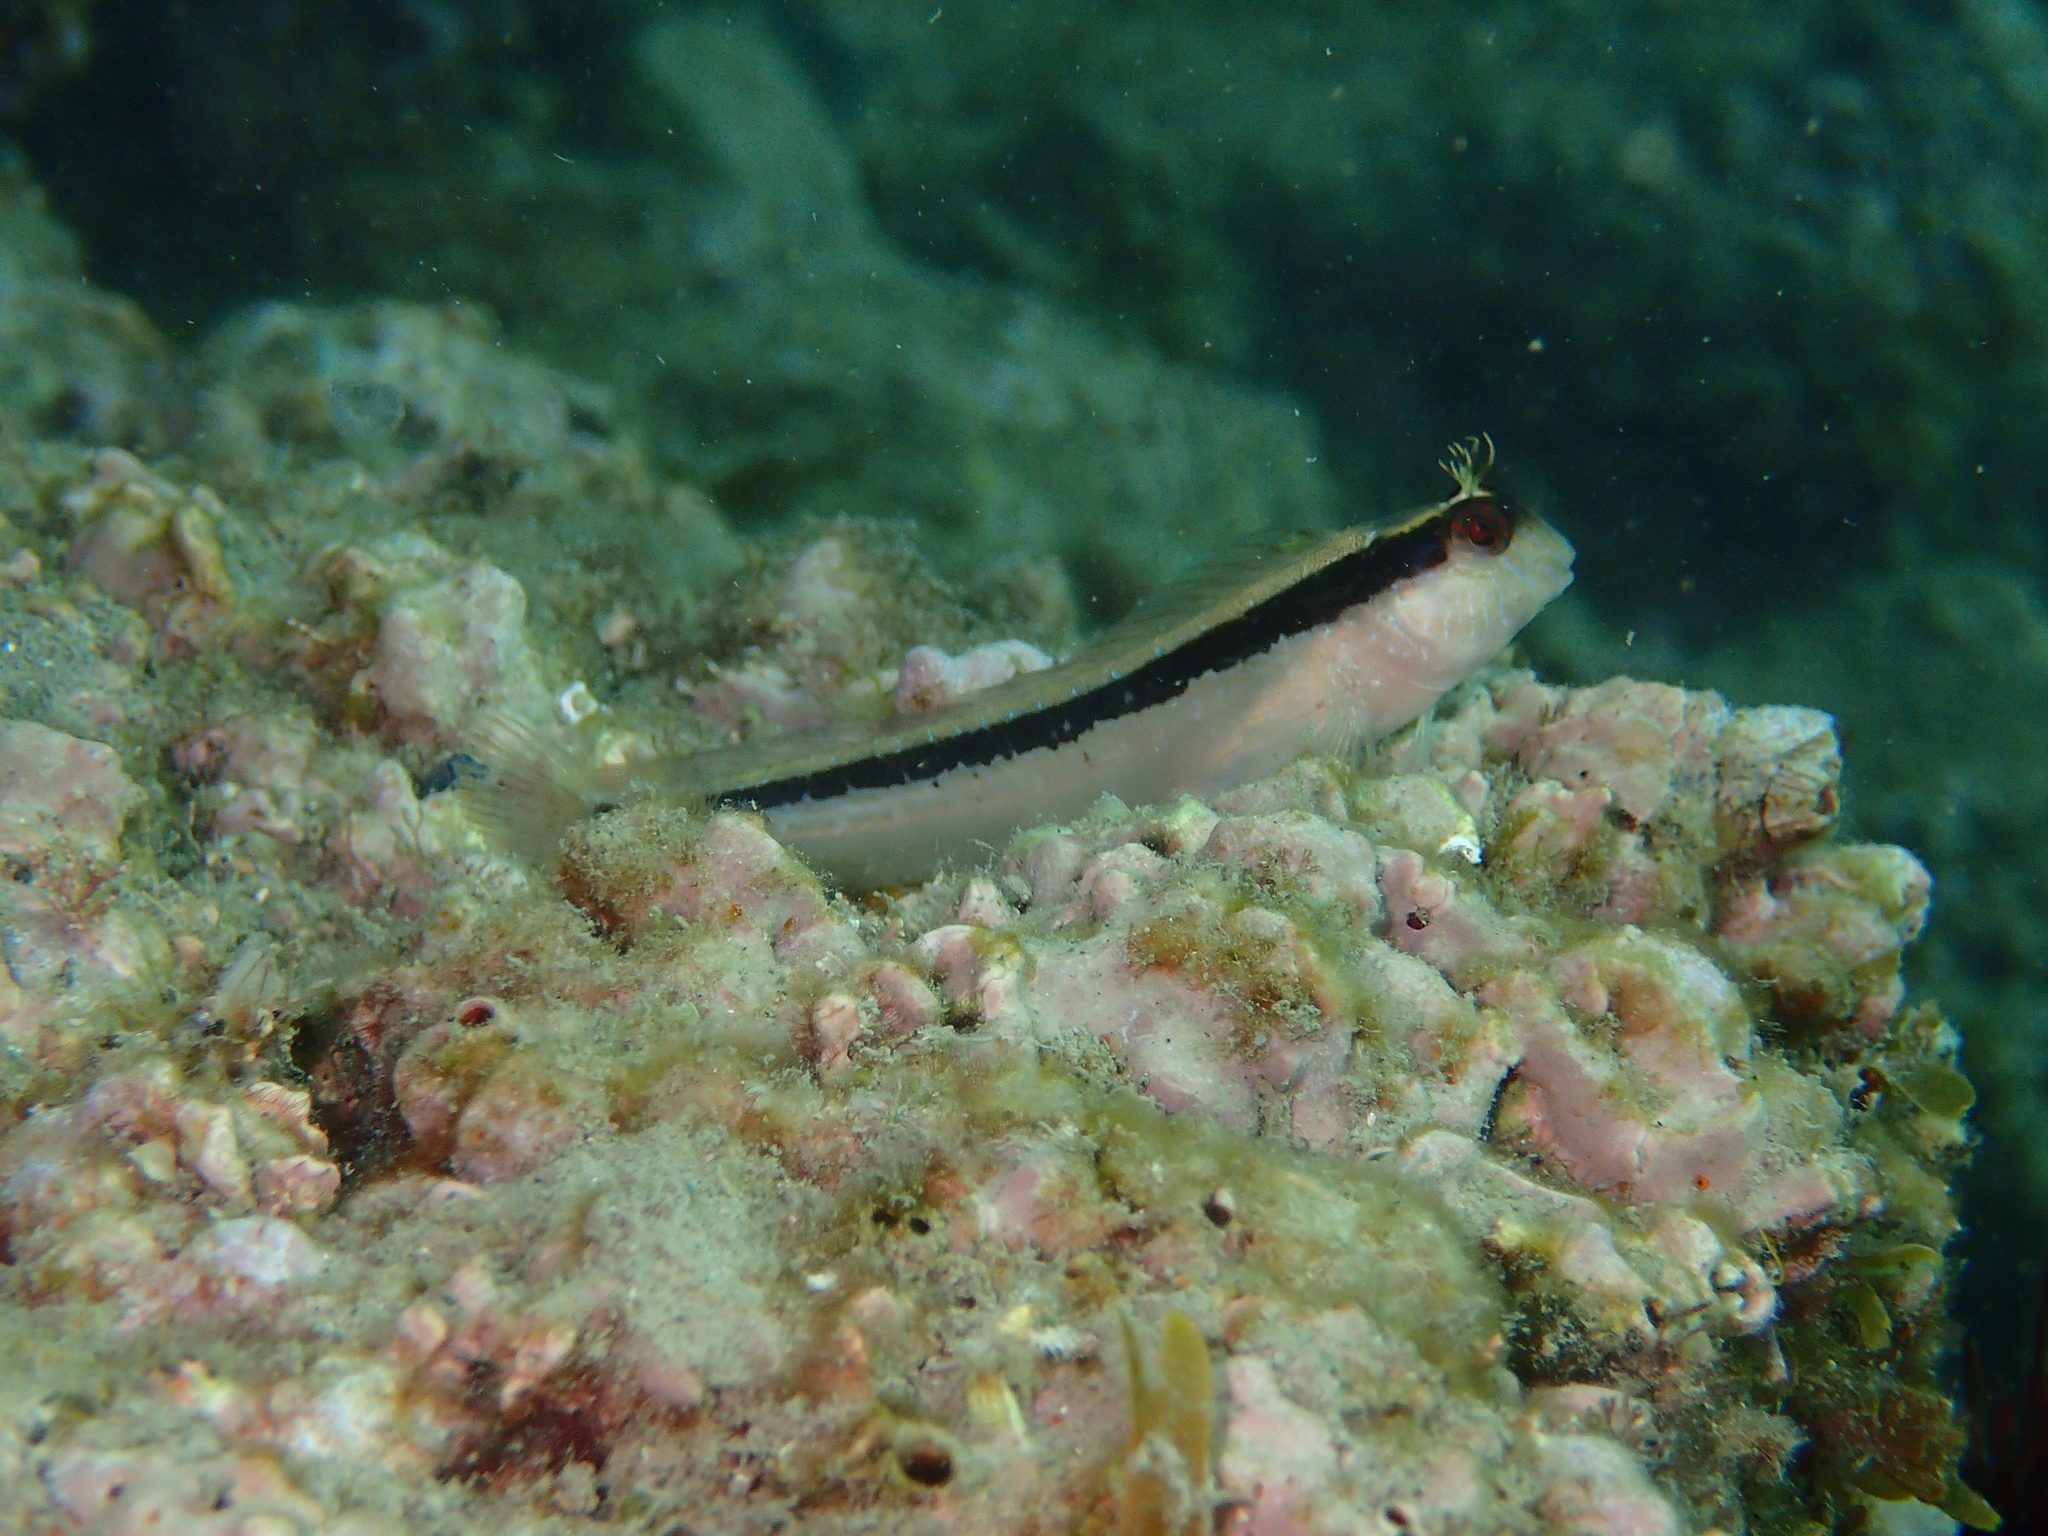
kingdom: Animalia
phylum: Chordata
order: Perciformes
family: Blenniidae
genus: Parablennius
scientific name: Parablennius rouxi
